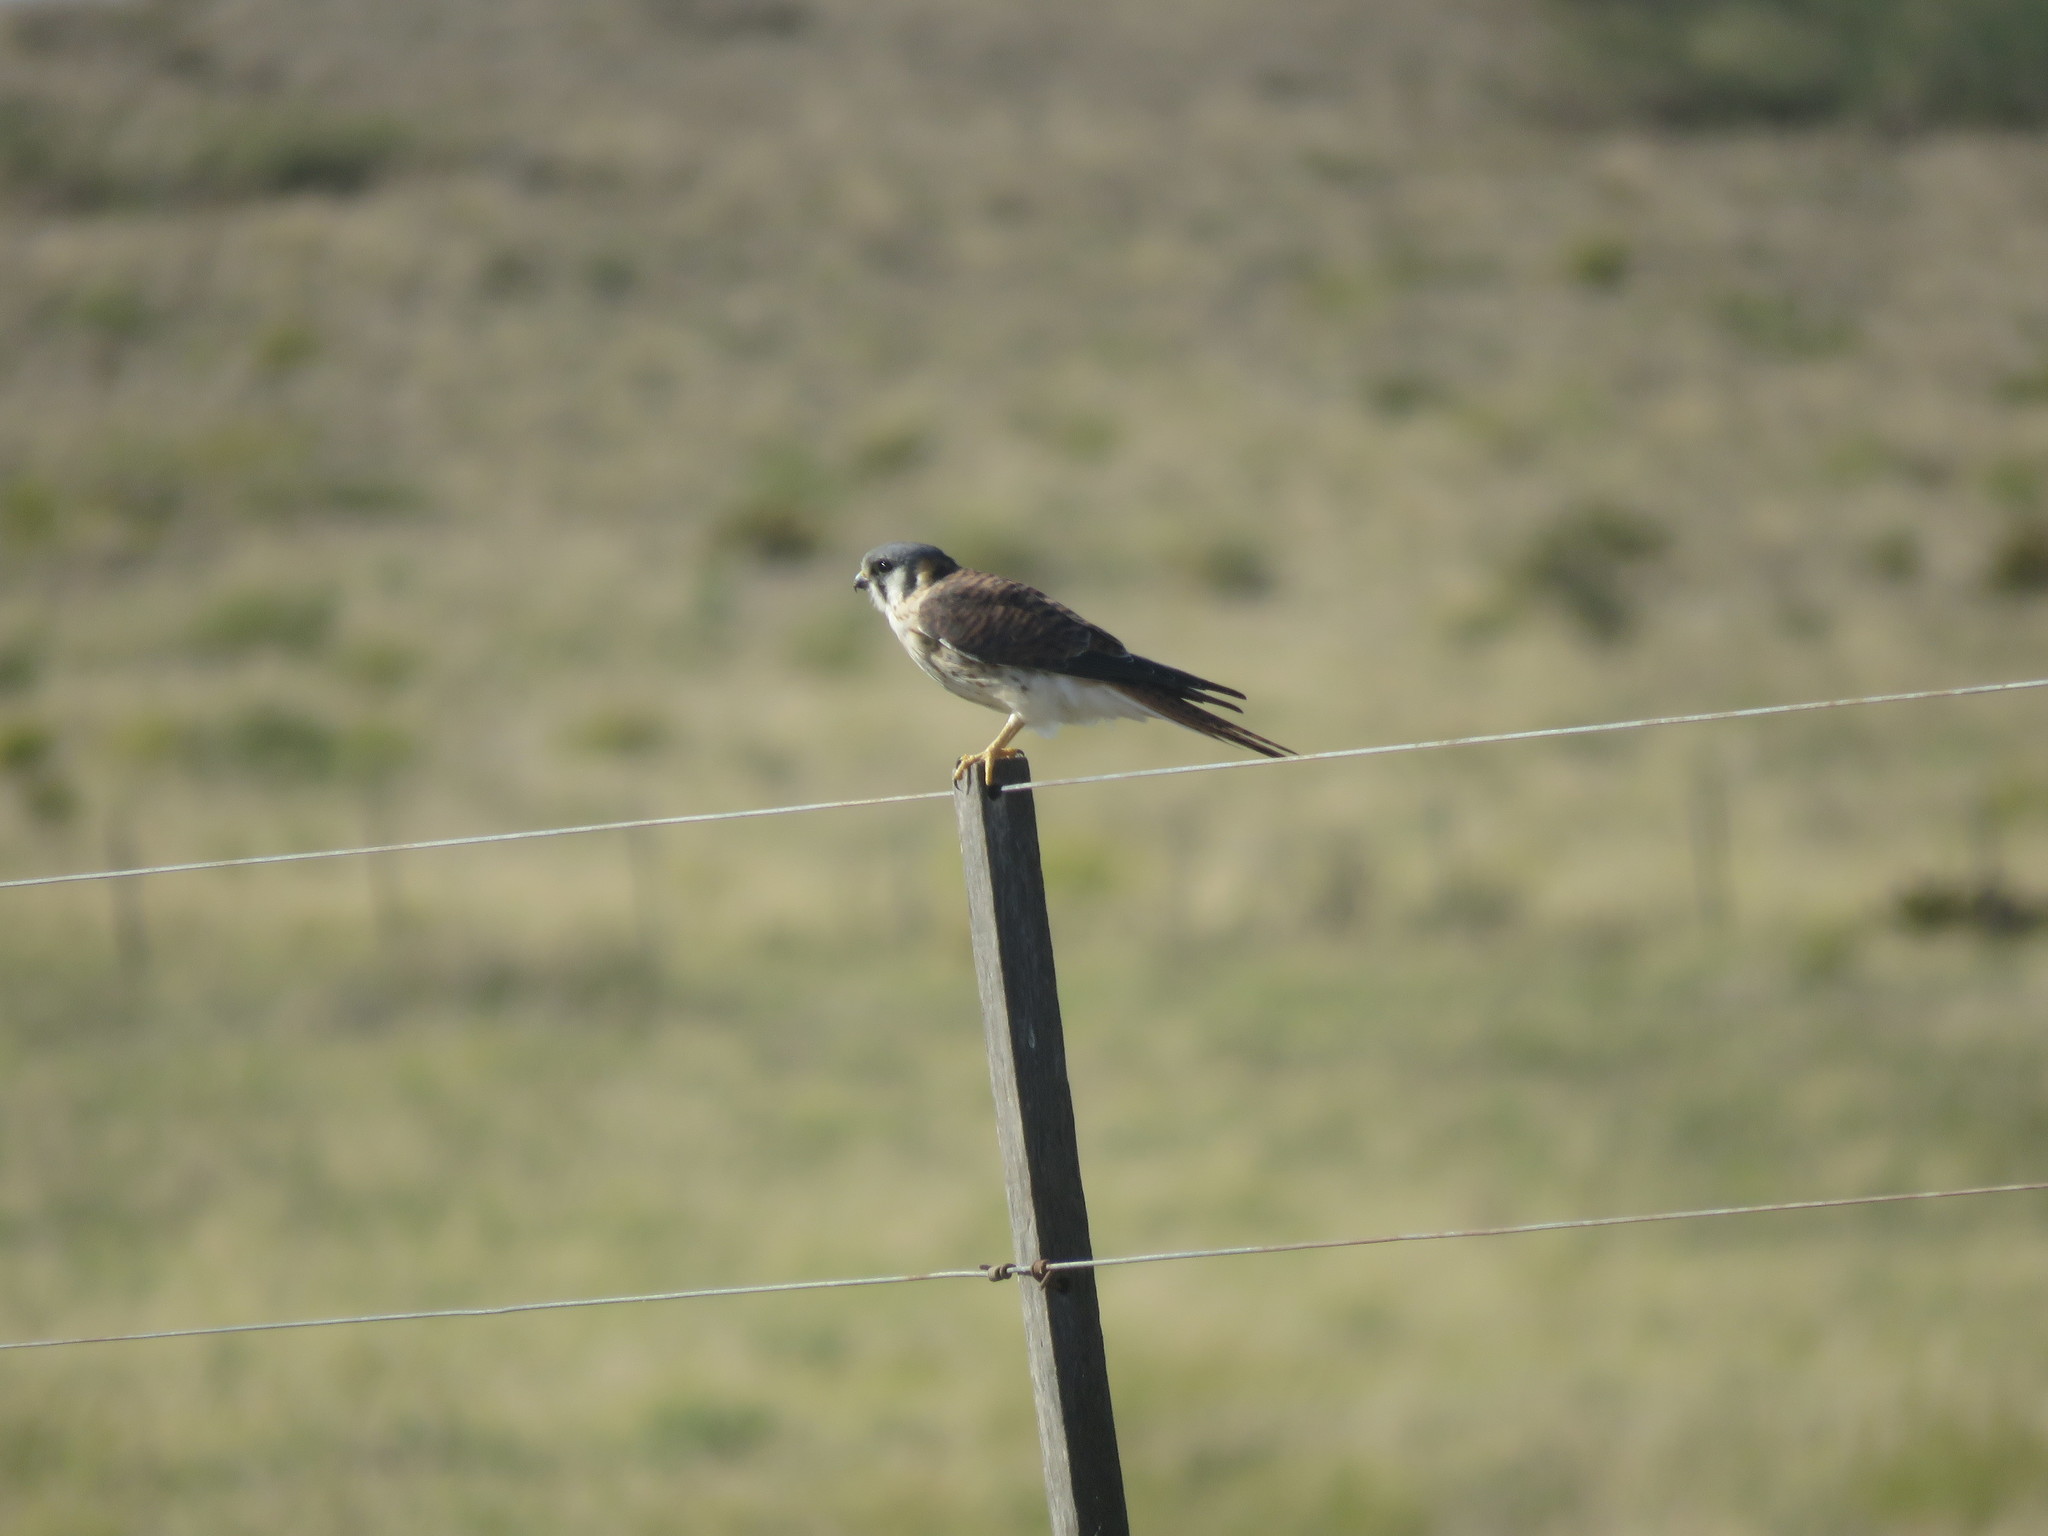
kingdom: Animalia
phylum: Chordata
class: Aves
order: Falconiformes
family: Falconidae
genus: Falco
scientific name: Falco sparverius
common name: American kestrel
